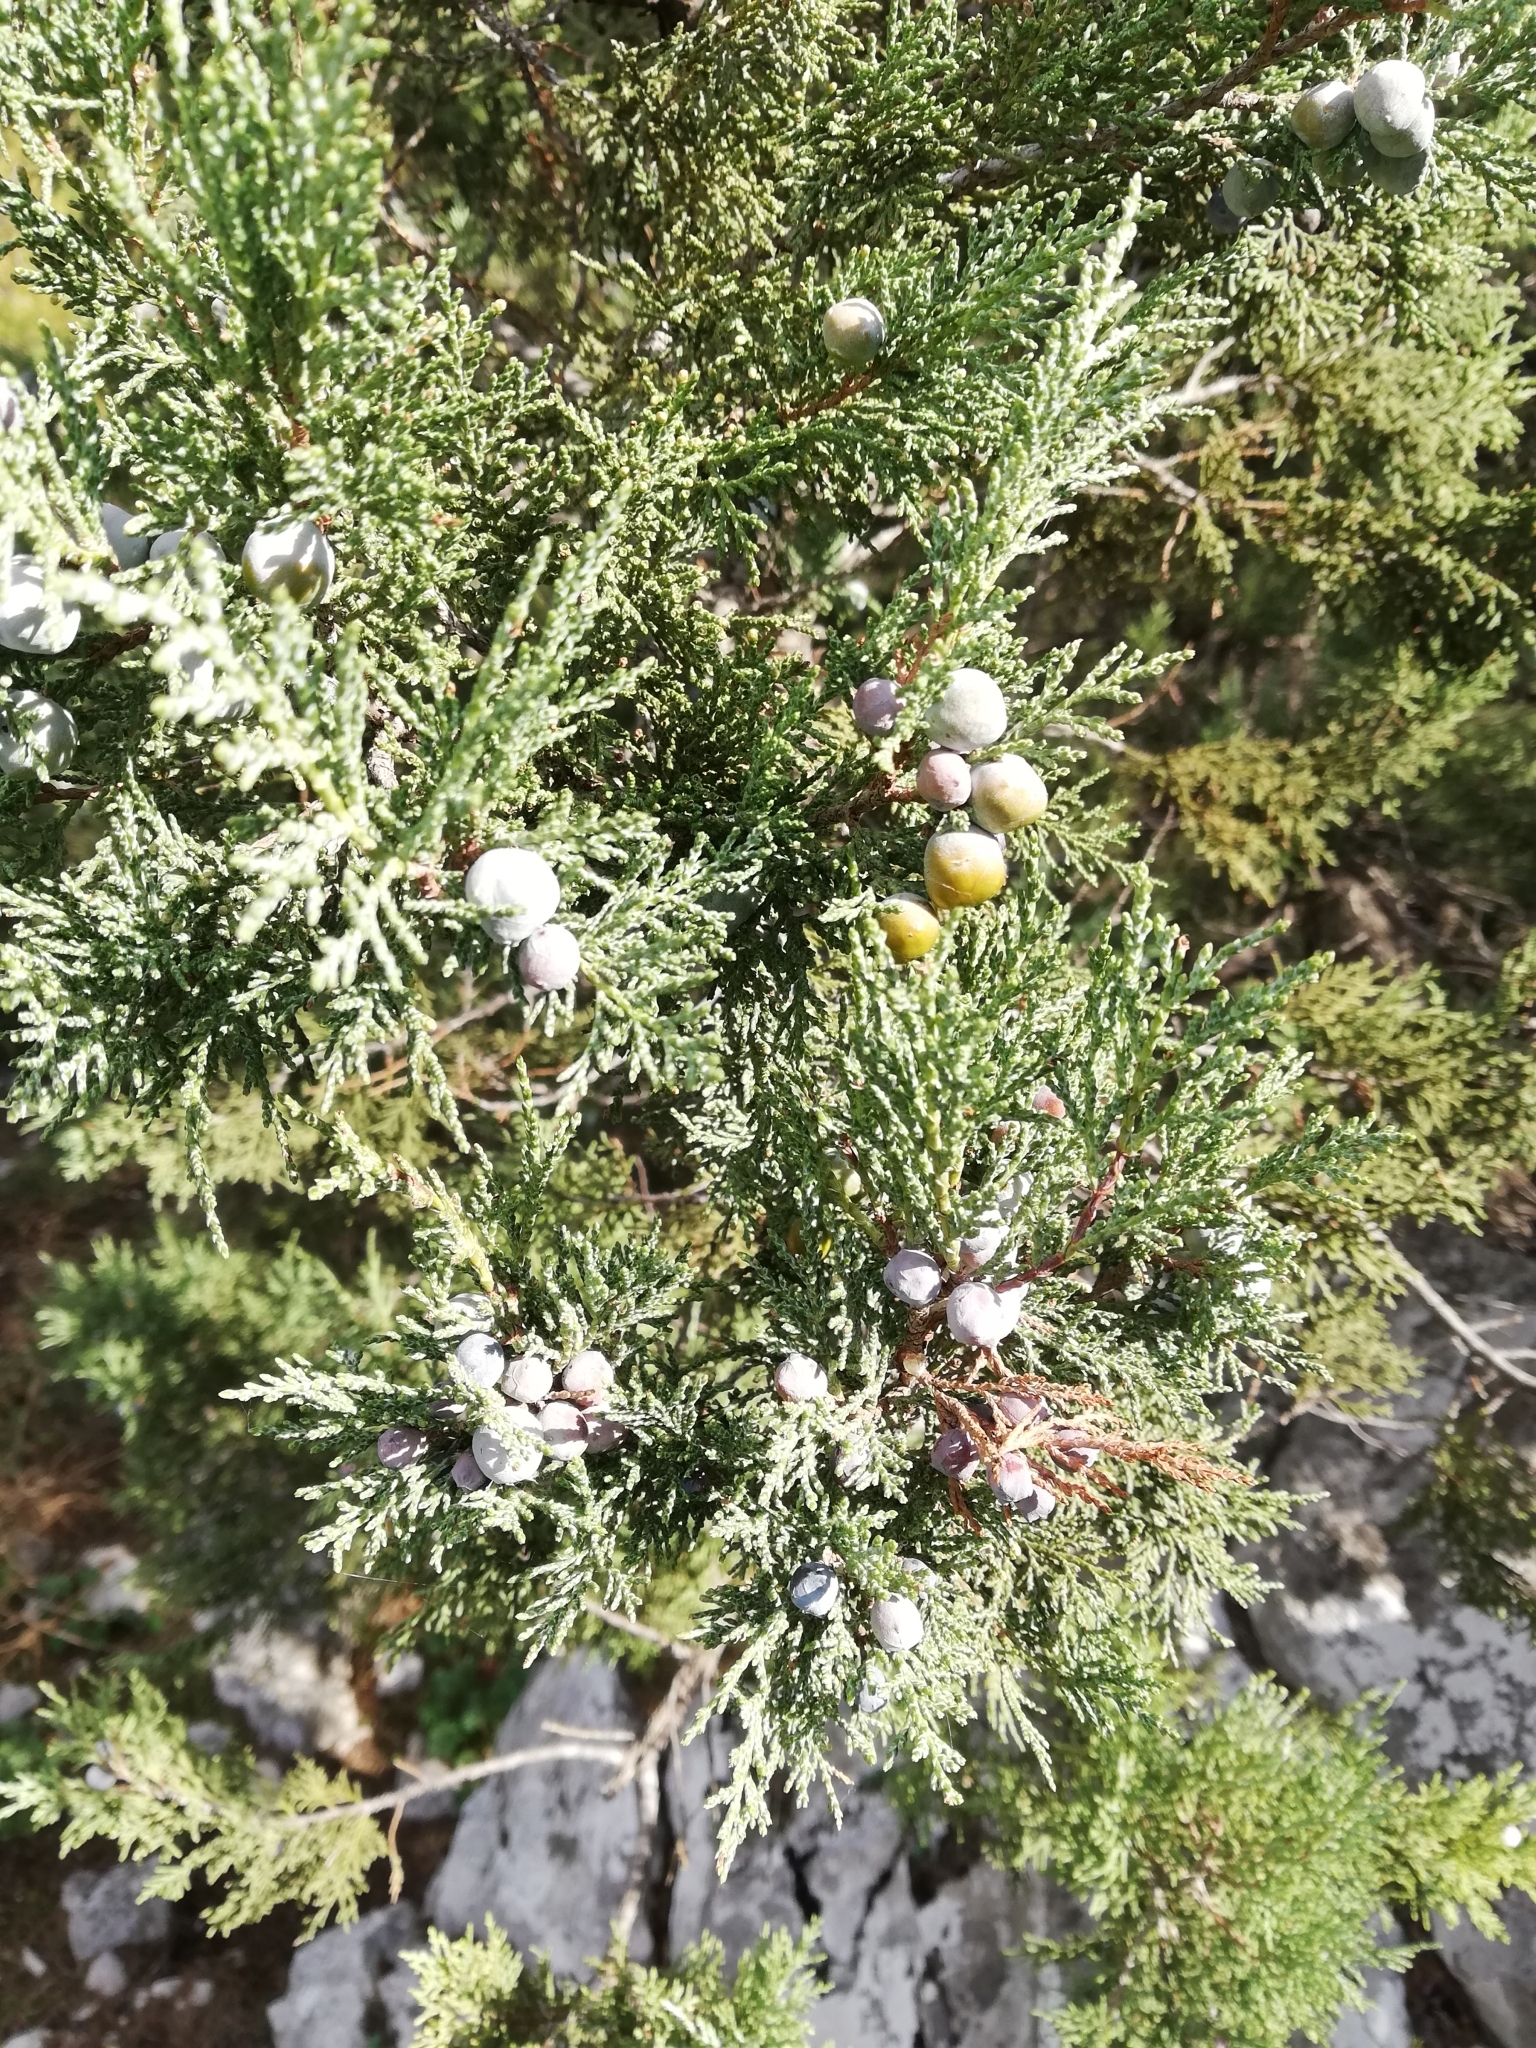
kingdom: Plantae
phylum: Tracheophyta
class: Pinopsida
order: Pinales
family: Cupressaceae
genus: Juniperus
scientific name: Juniperus excelsa
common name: Crimean juniper
